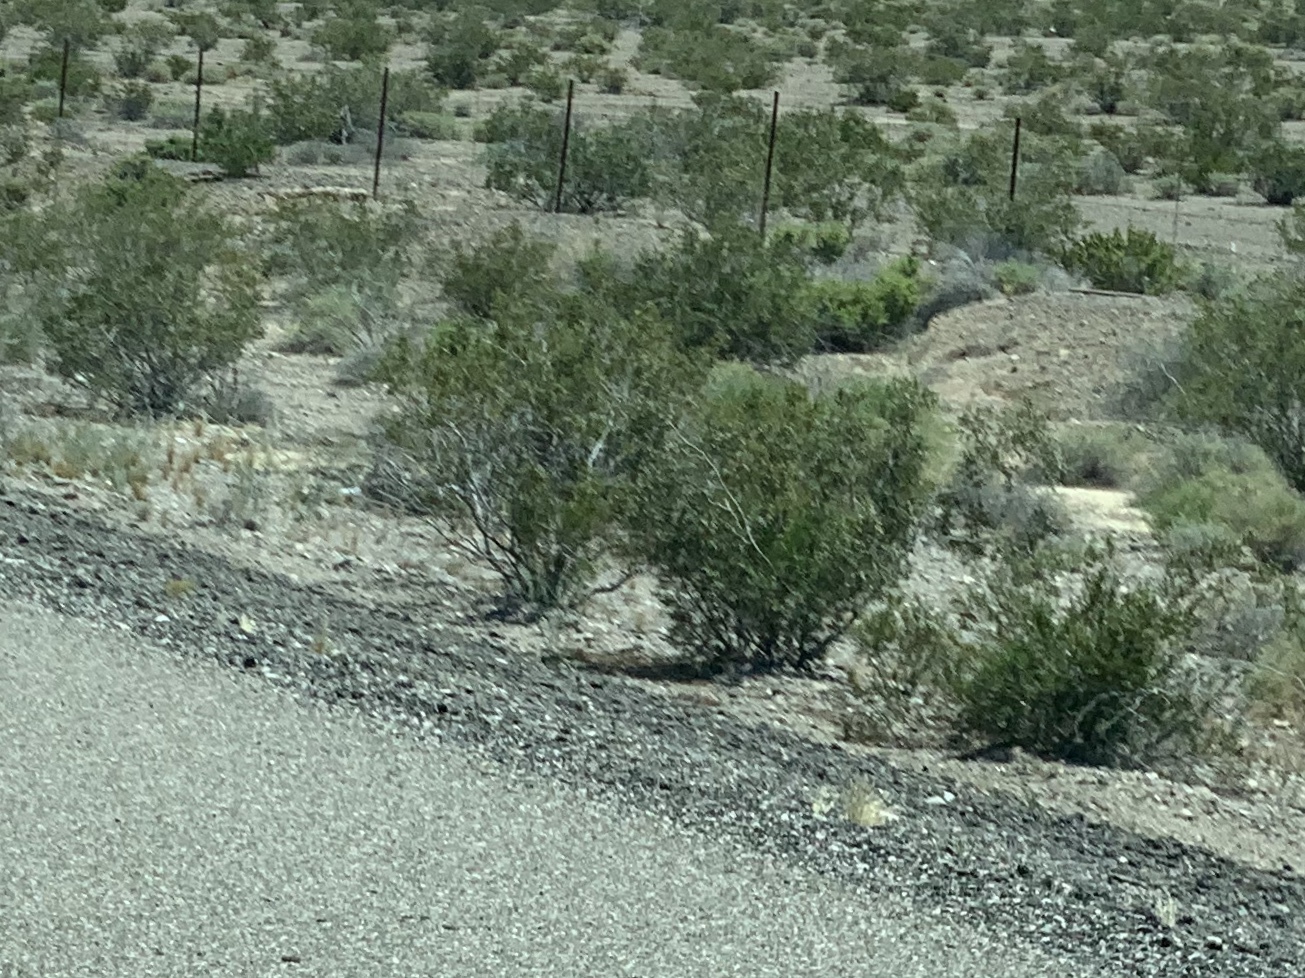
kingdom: Plantae
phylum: Tracheophyta
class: Magnoliopsida
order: Zygophyllales
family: Zygophyllaceae
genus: Larrea
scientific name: Larrea tridentata
